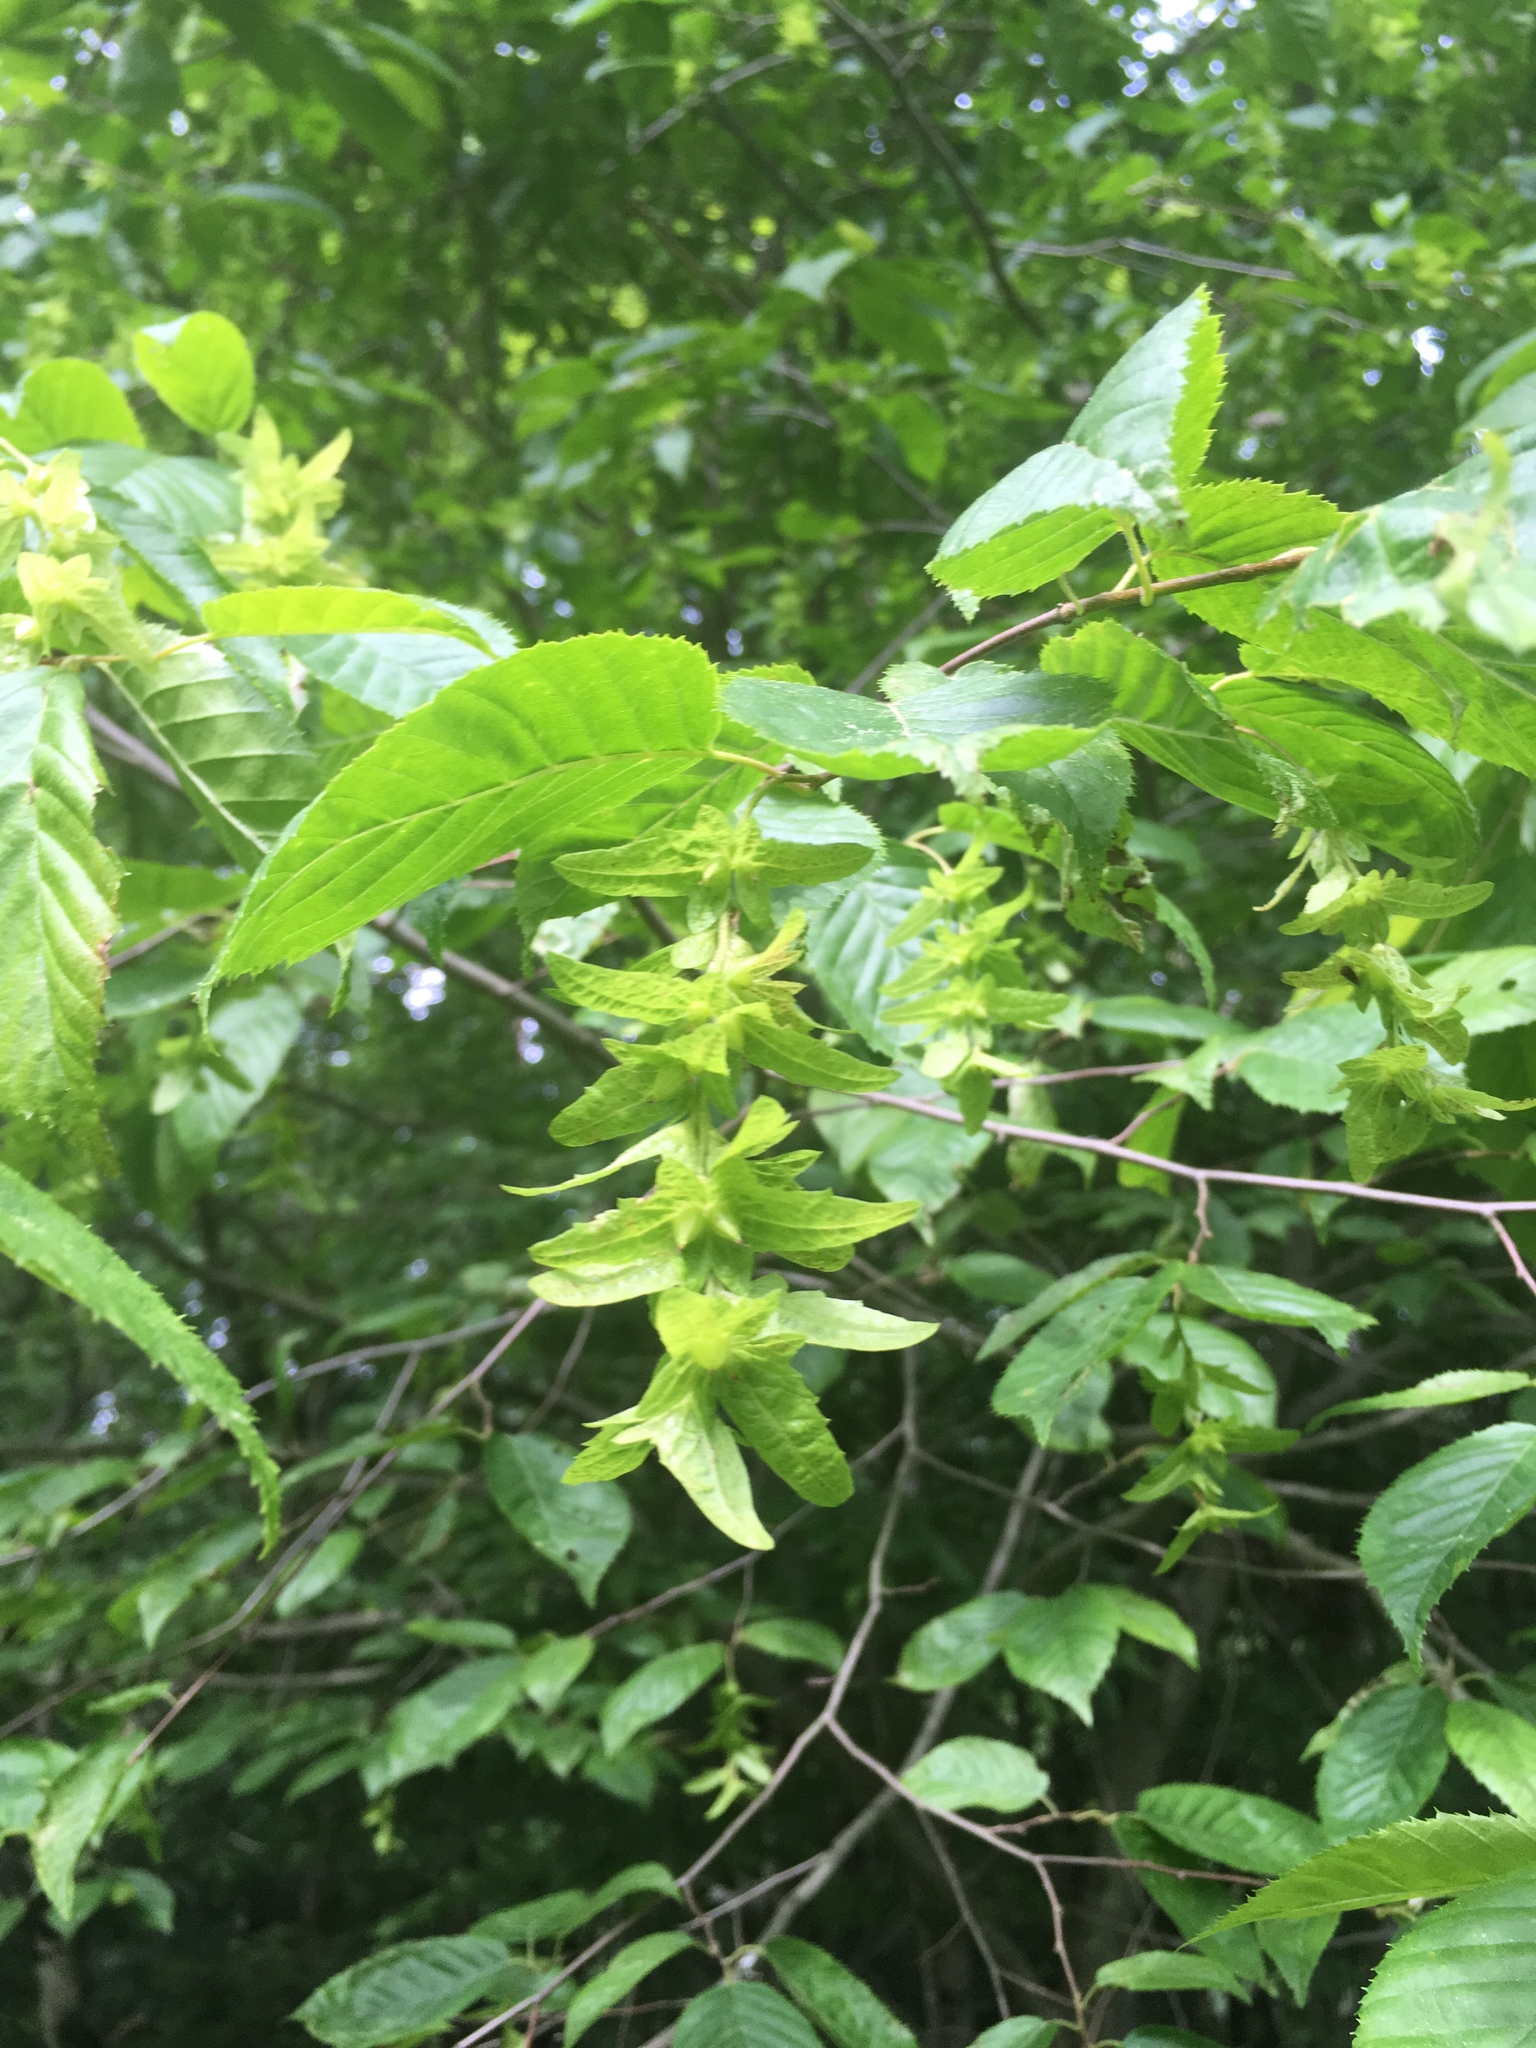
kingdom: Plantae
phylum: Tracheophyta
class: Magnoliopsida
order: Fagales
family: Betulaceae
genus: Carpinus
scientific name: Carpinus caroliniana
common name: American hornbeam
